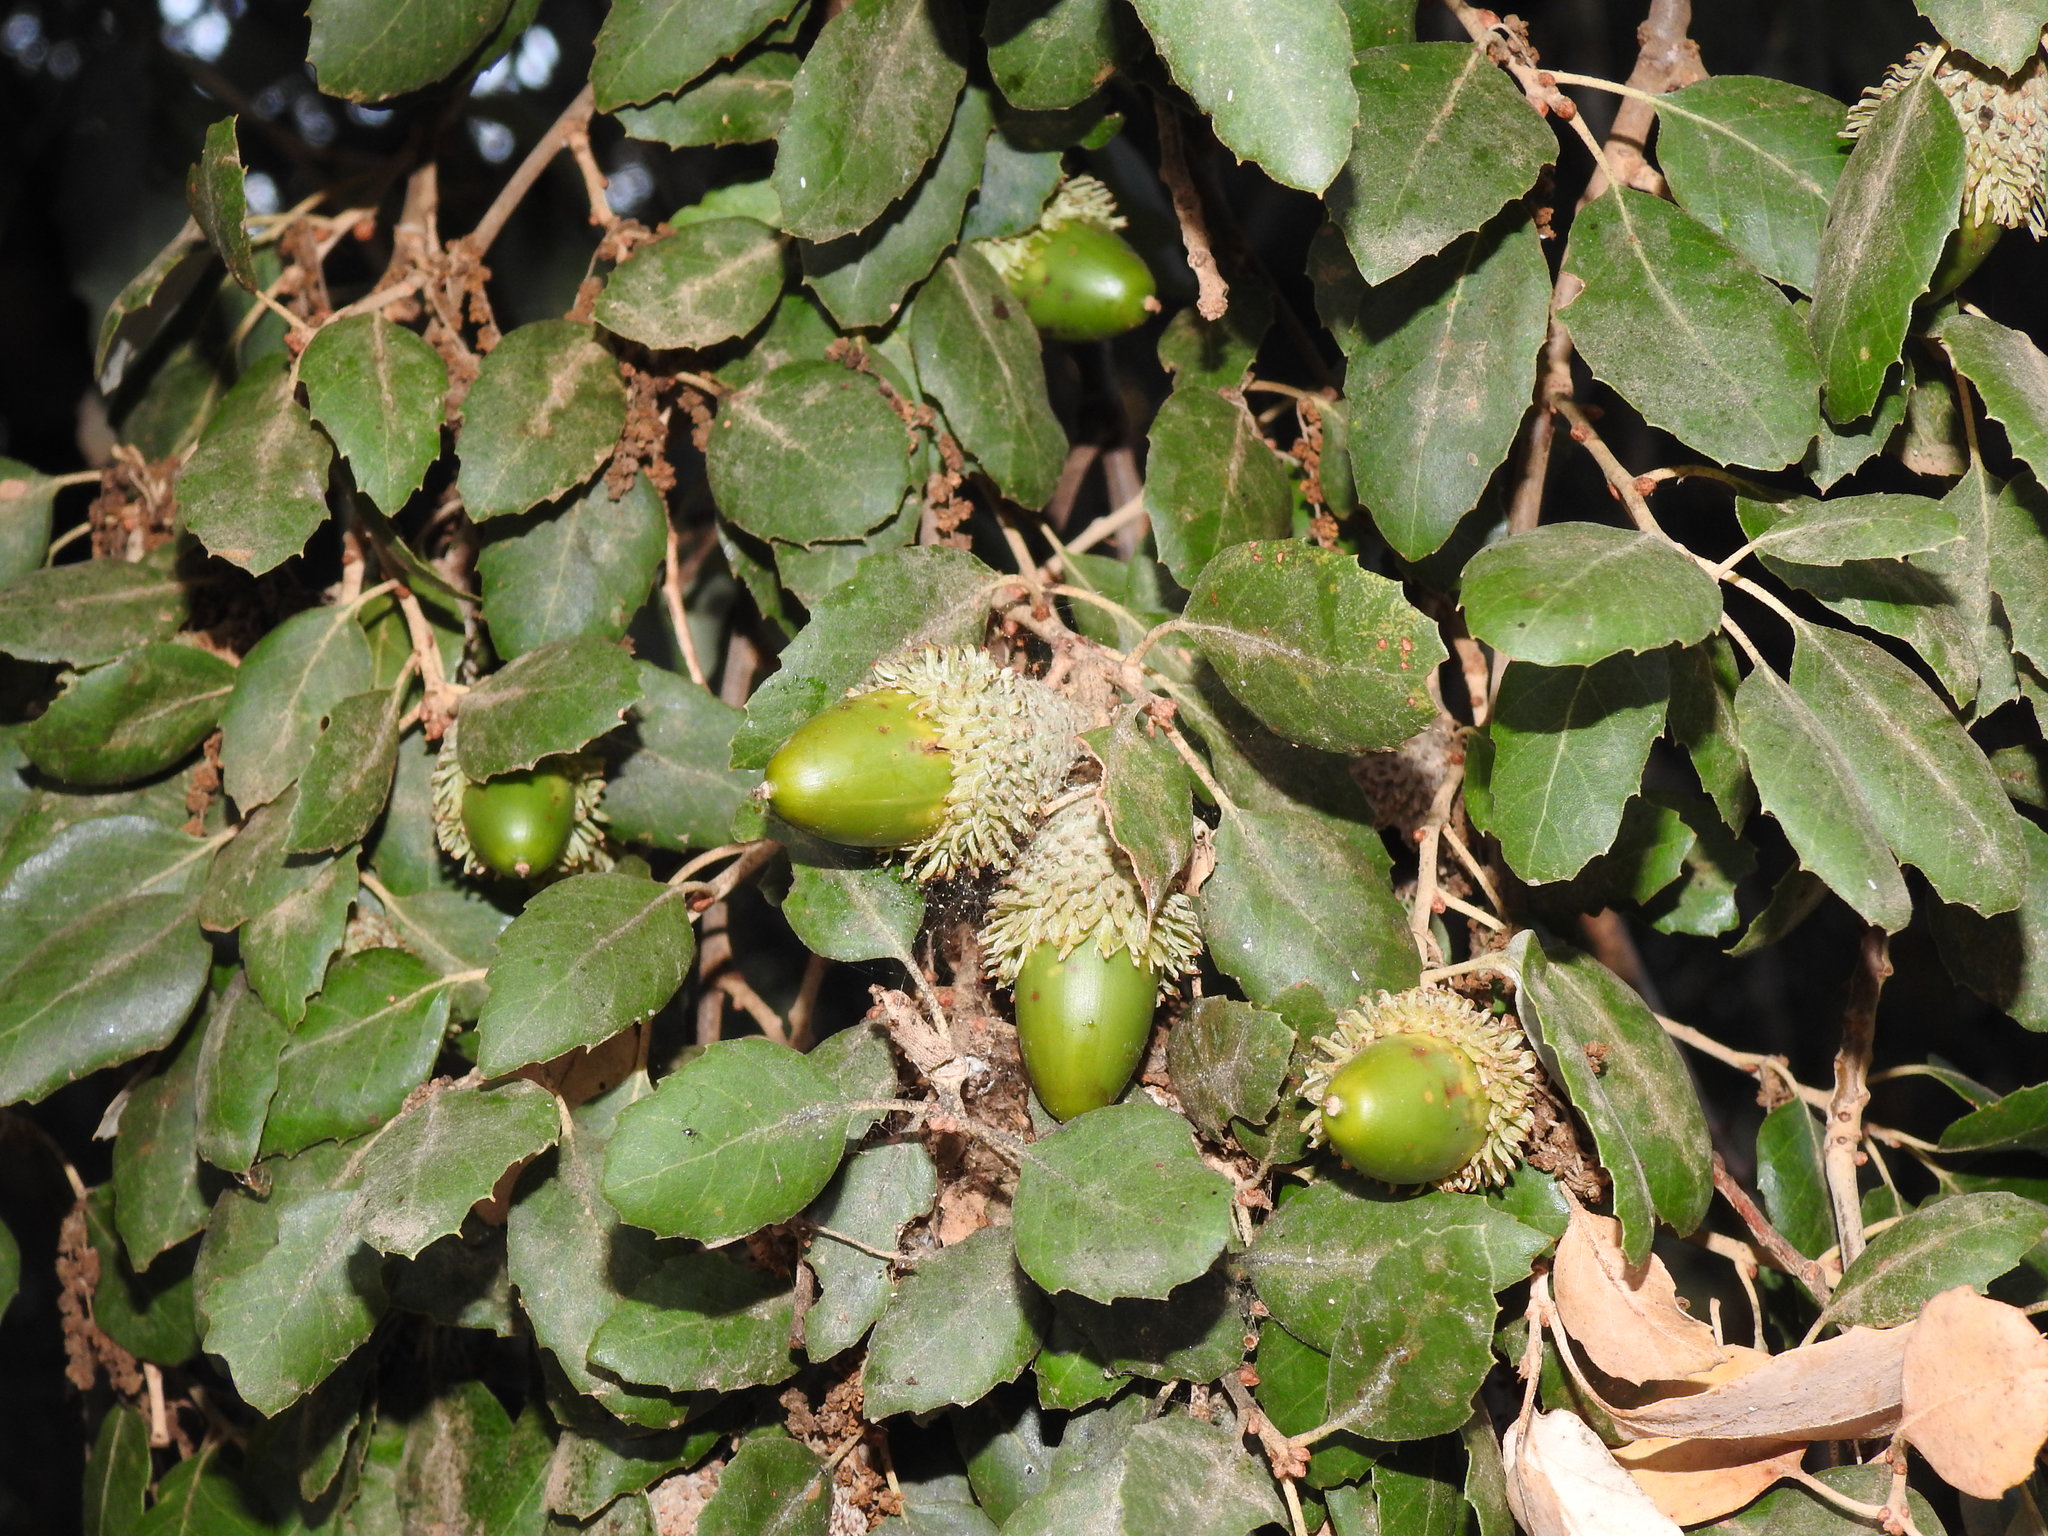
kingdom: Plantae
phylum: Tracheophyta
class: Magnoliopsida
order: Fagales
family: Fagaceae
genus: Quercus
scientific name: Quercus suber
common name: Cork oak
